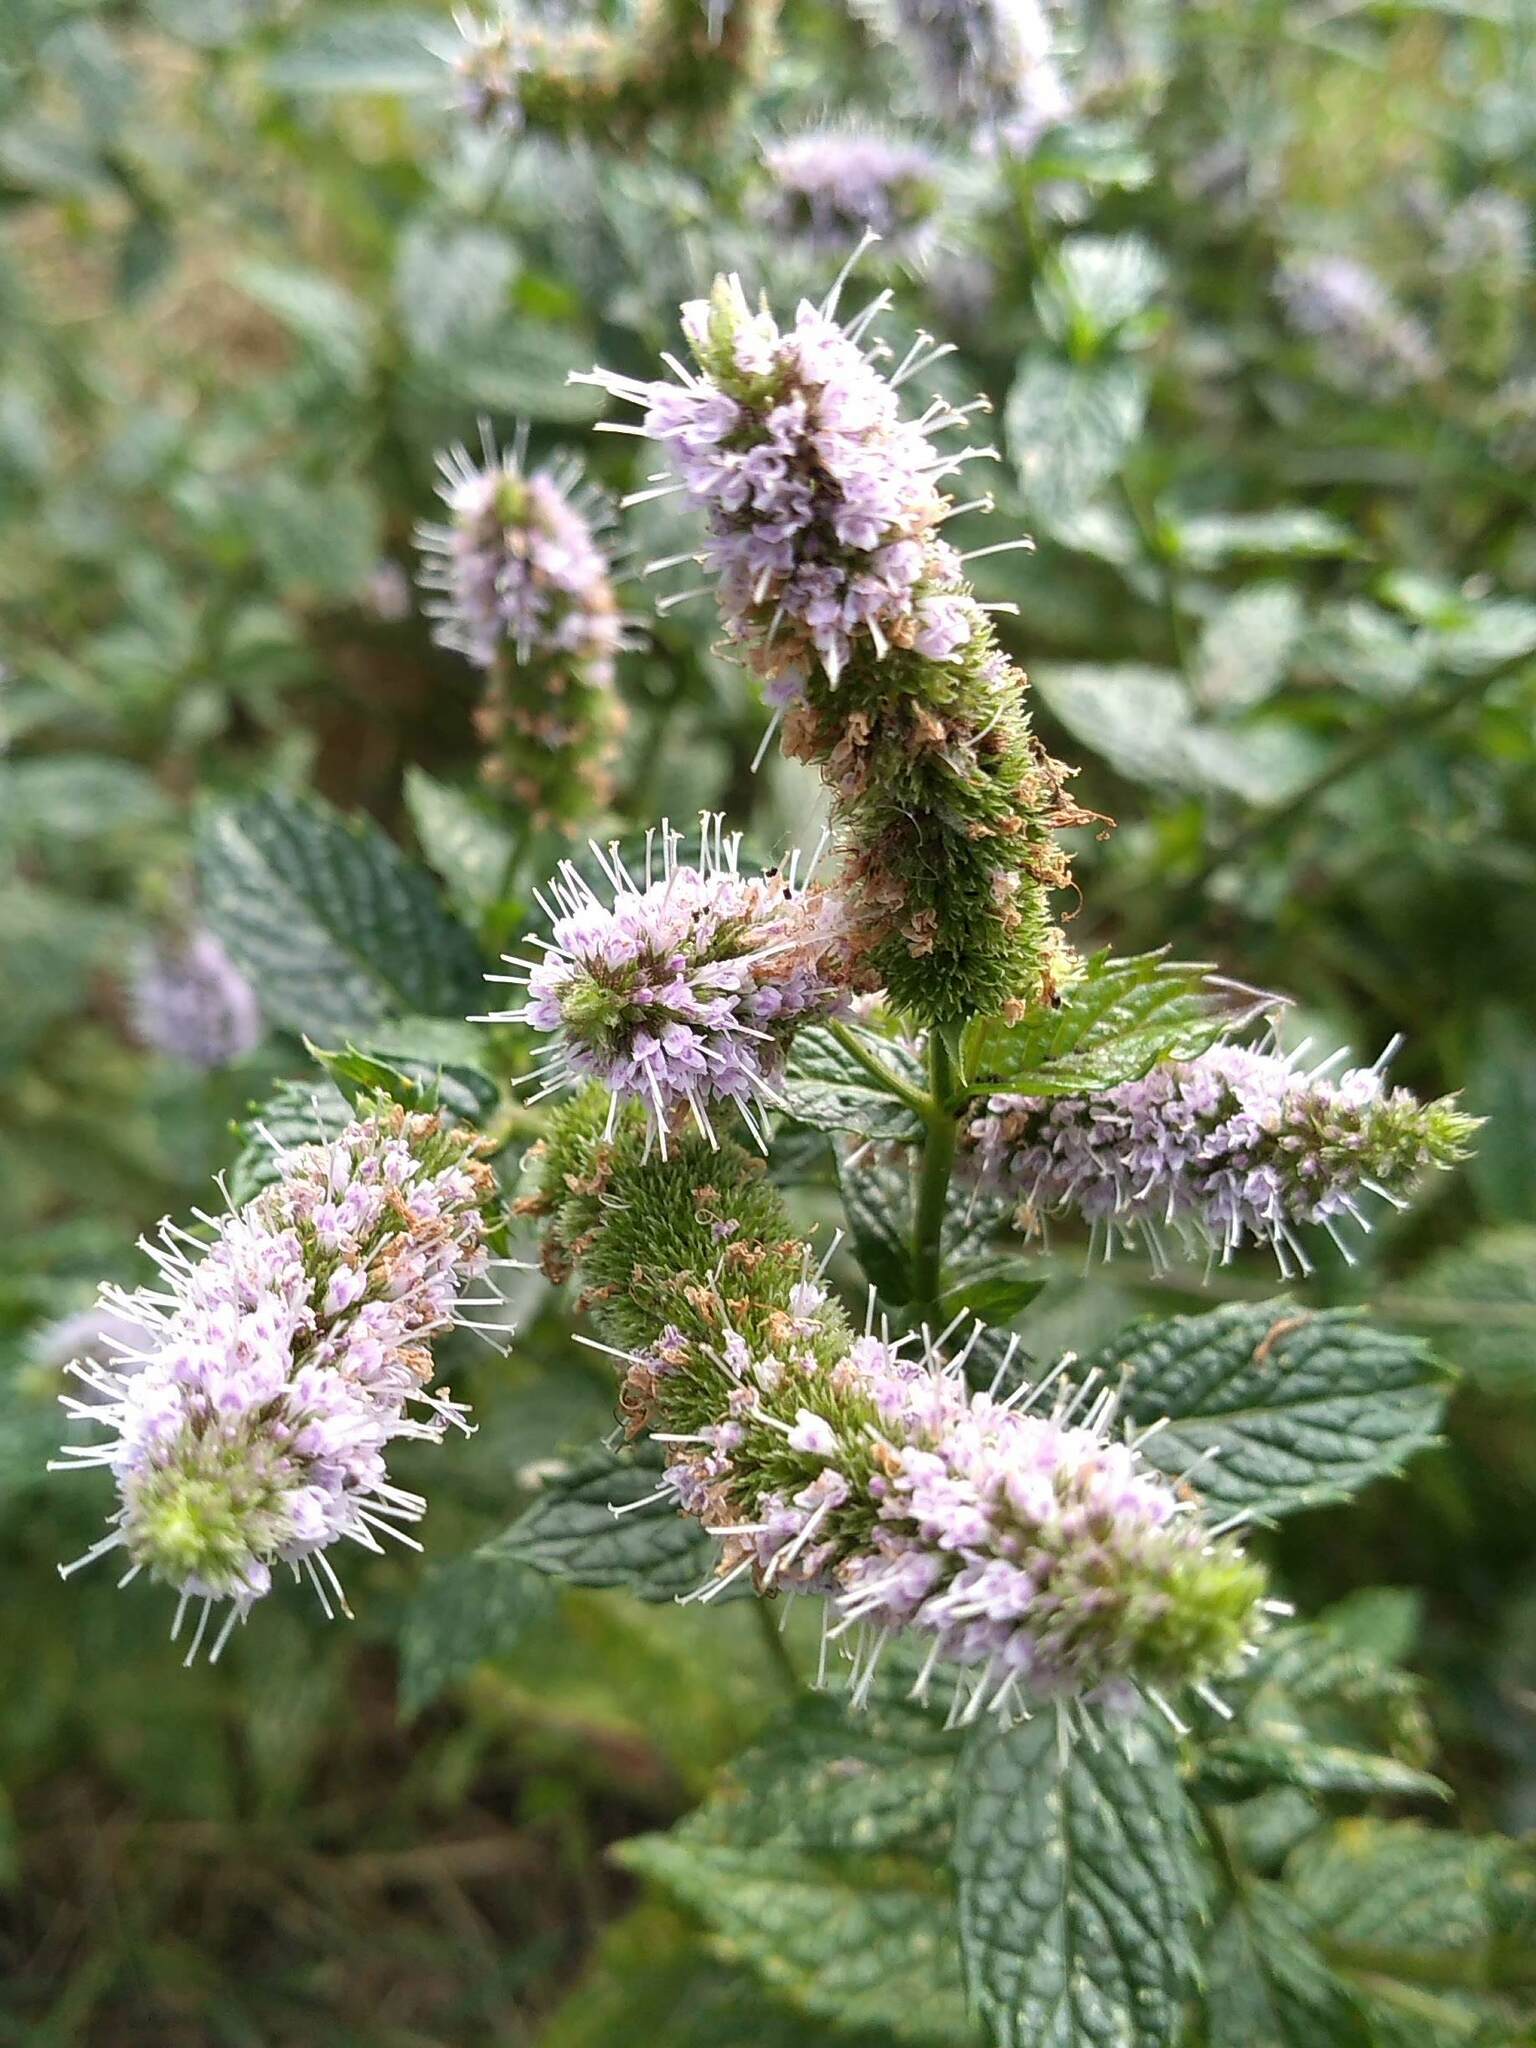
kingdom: Plantae
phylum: Tracheophyta
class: Magnoliopsida
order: Lamiales
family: Lamiaceae
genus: Mentha
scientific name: Mentha spicata
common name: Spearmint
